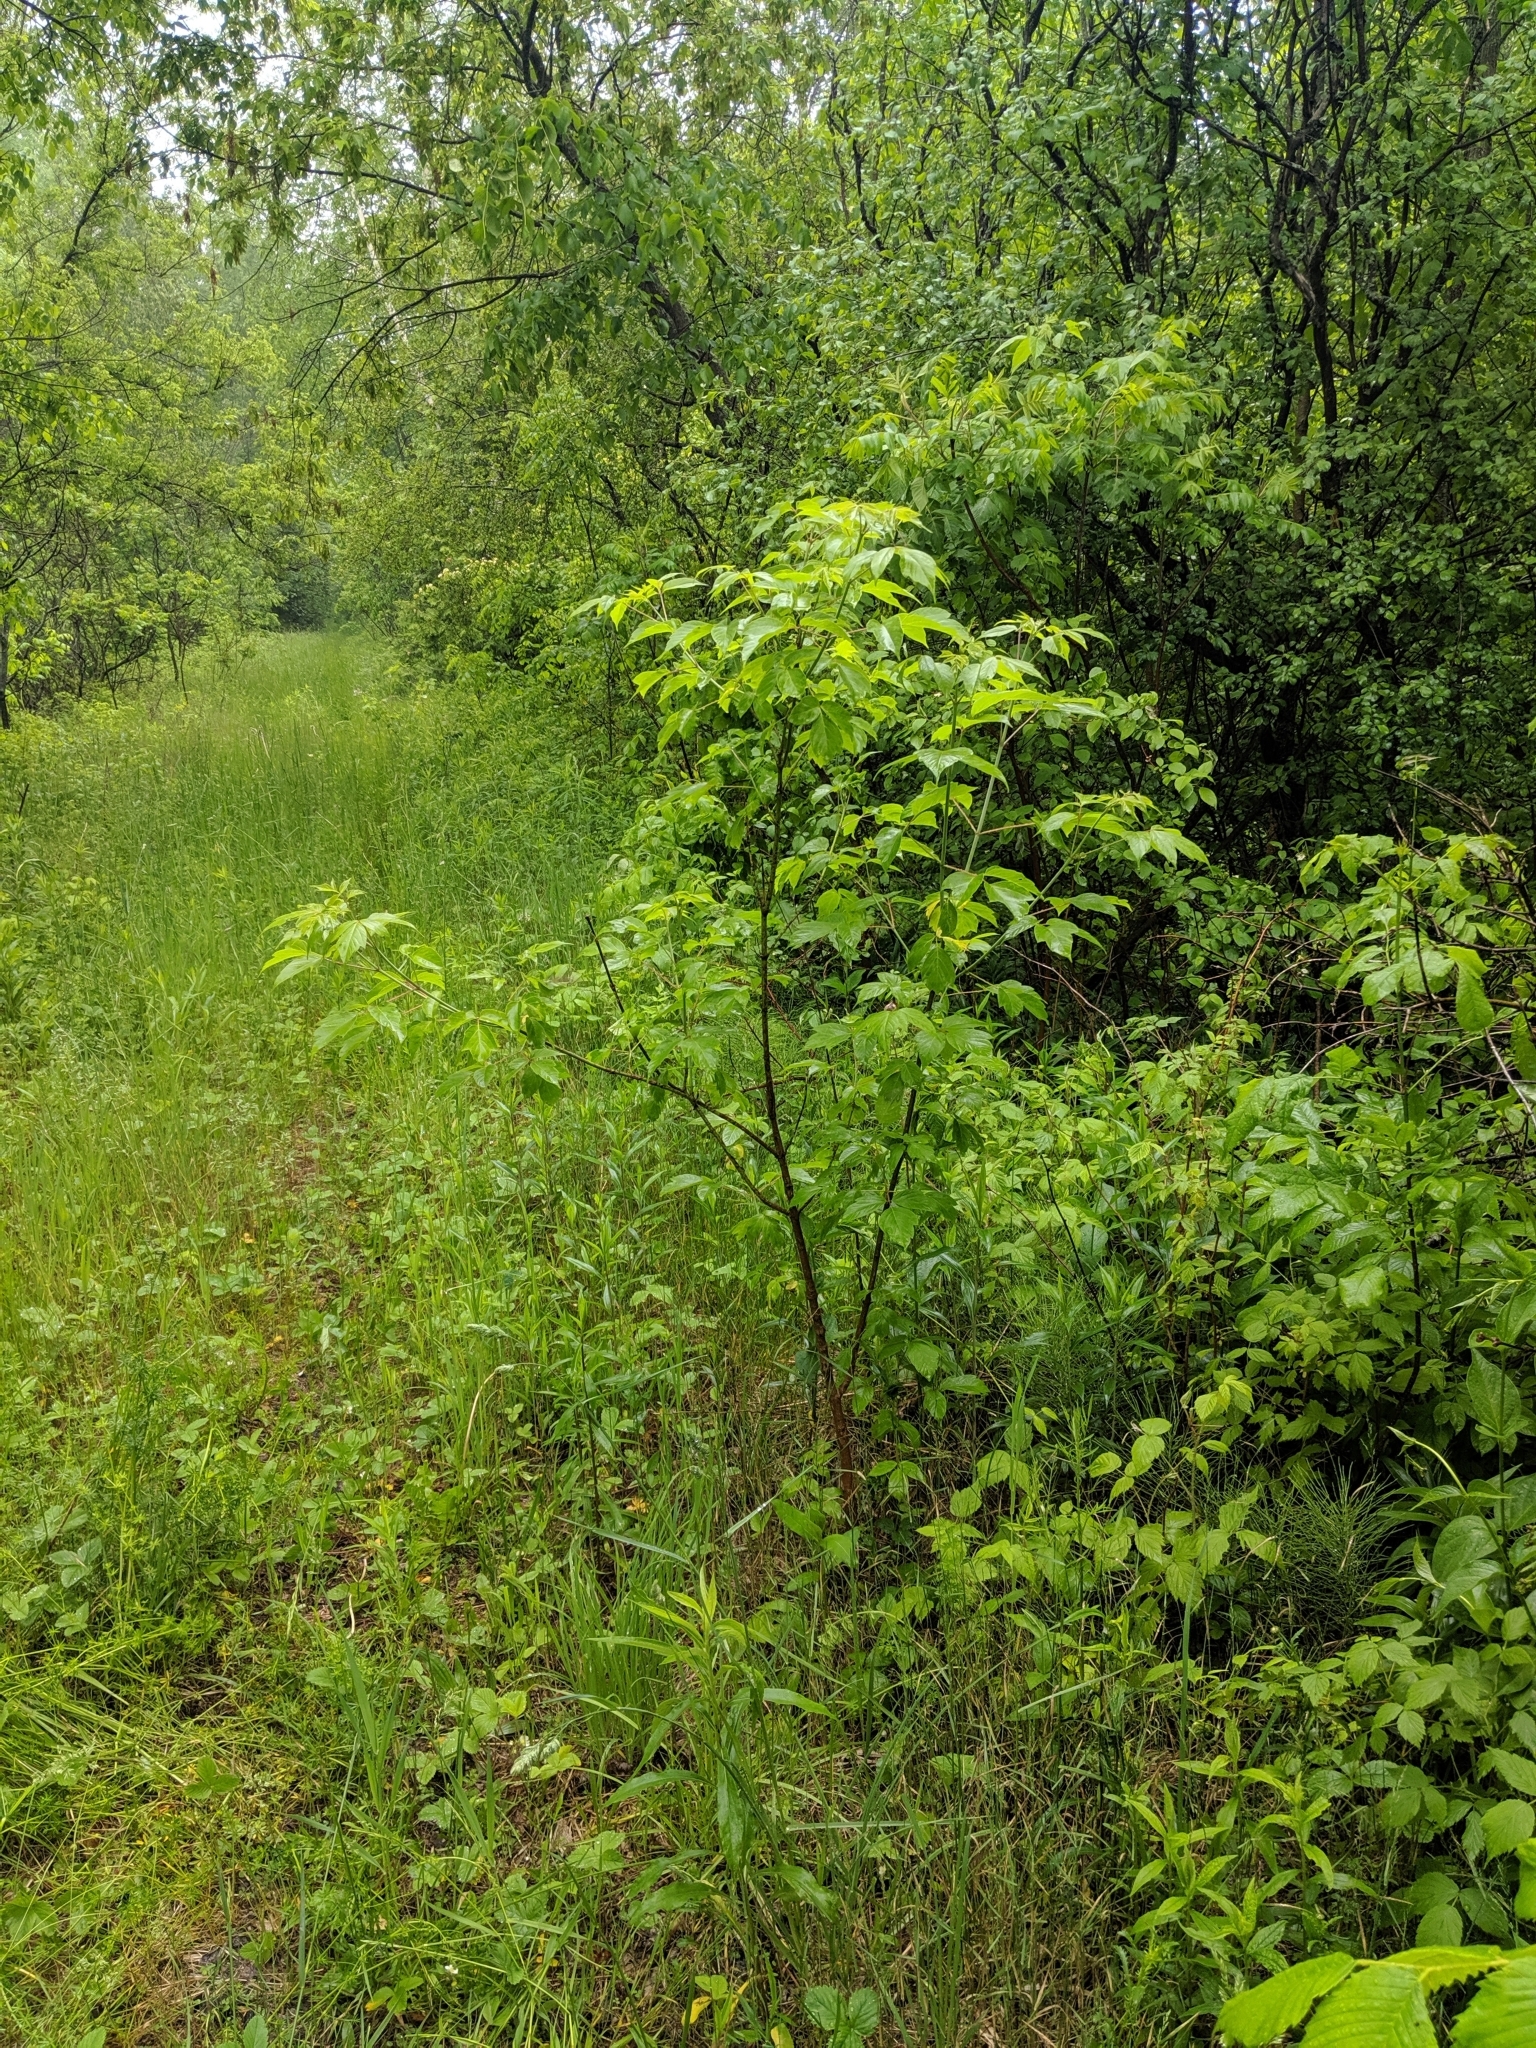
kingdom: Plantae
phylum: Tracheophyta
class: Magnoliopsida
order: Gentianales
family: Apocynaceae
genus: Vincetoxicum
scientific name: Vincetoxicum rossicum
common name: Dog-strangling vine
